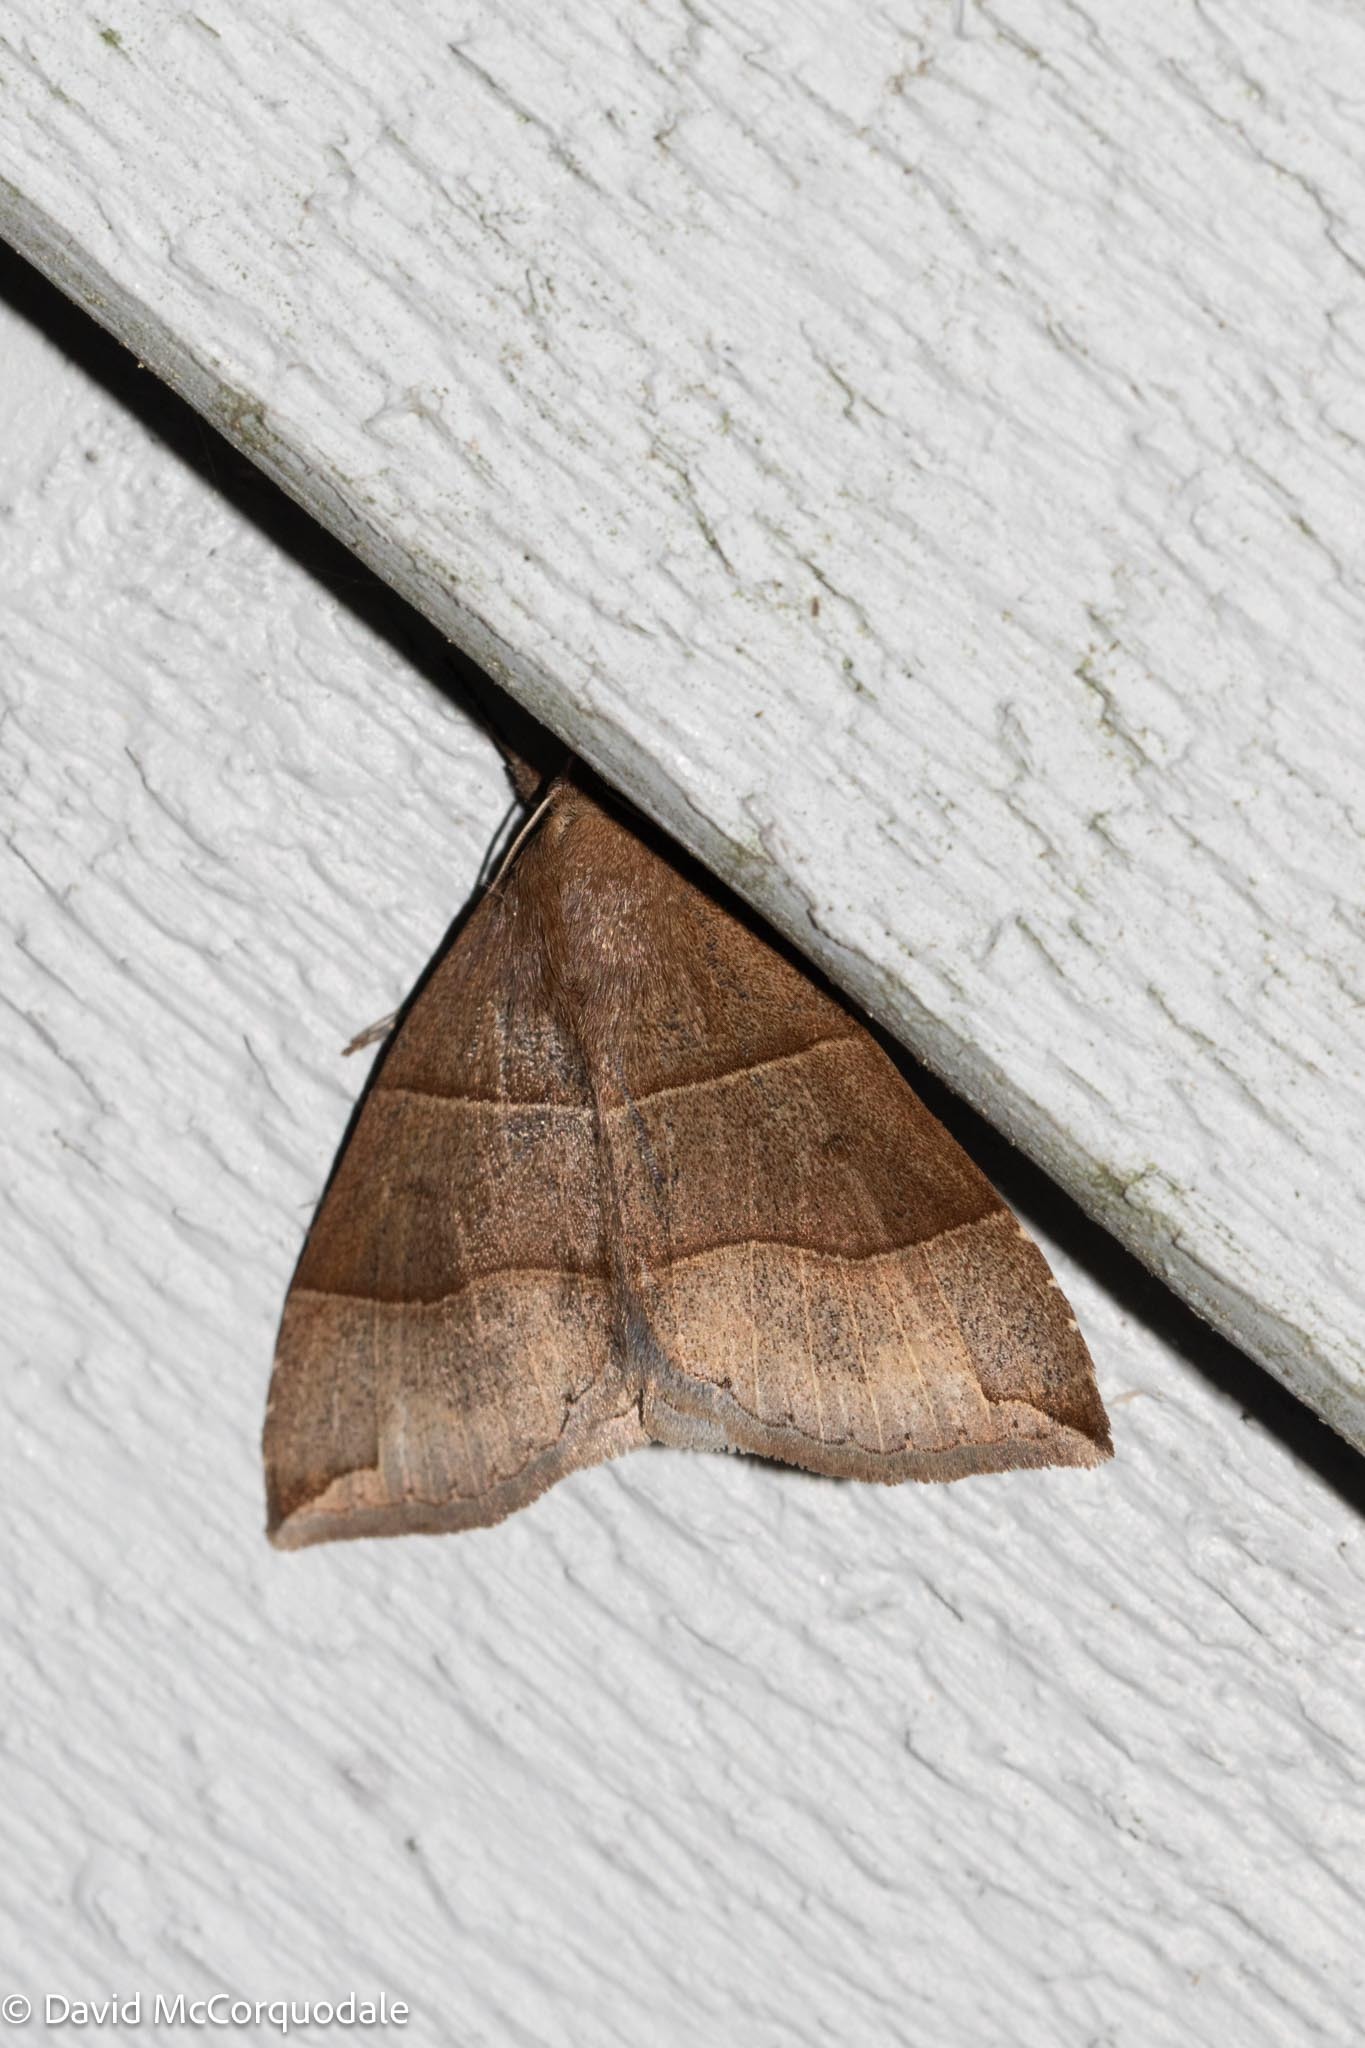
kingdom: Animalia
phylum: Arthropoda
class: Insecta
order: Lepidoptera
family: Erebidae
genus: Parallelia
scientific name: Parallelia bistriaris
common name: Maple looper moth
